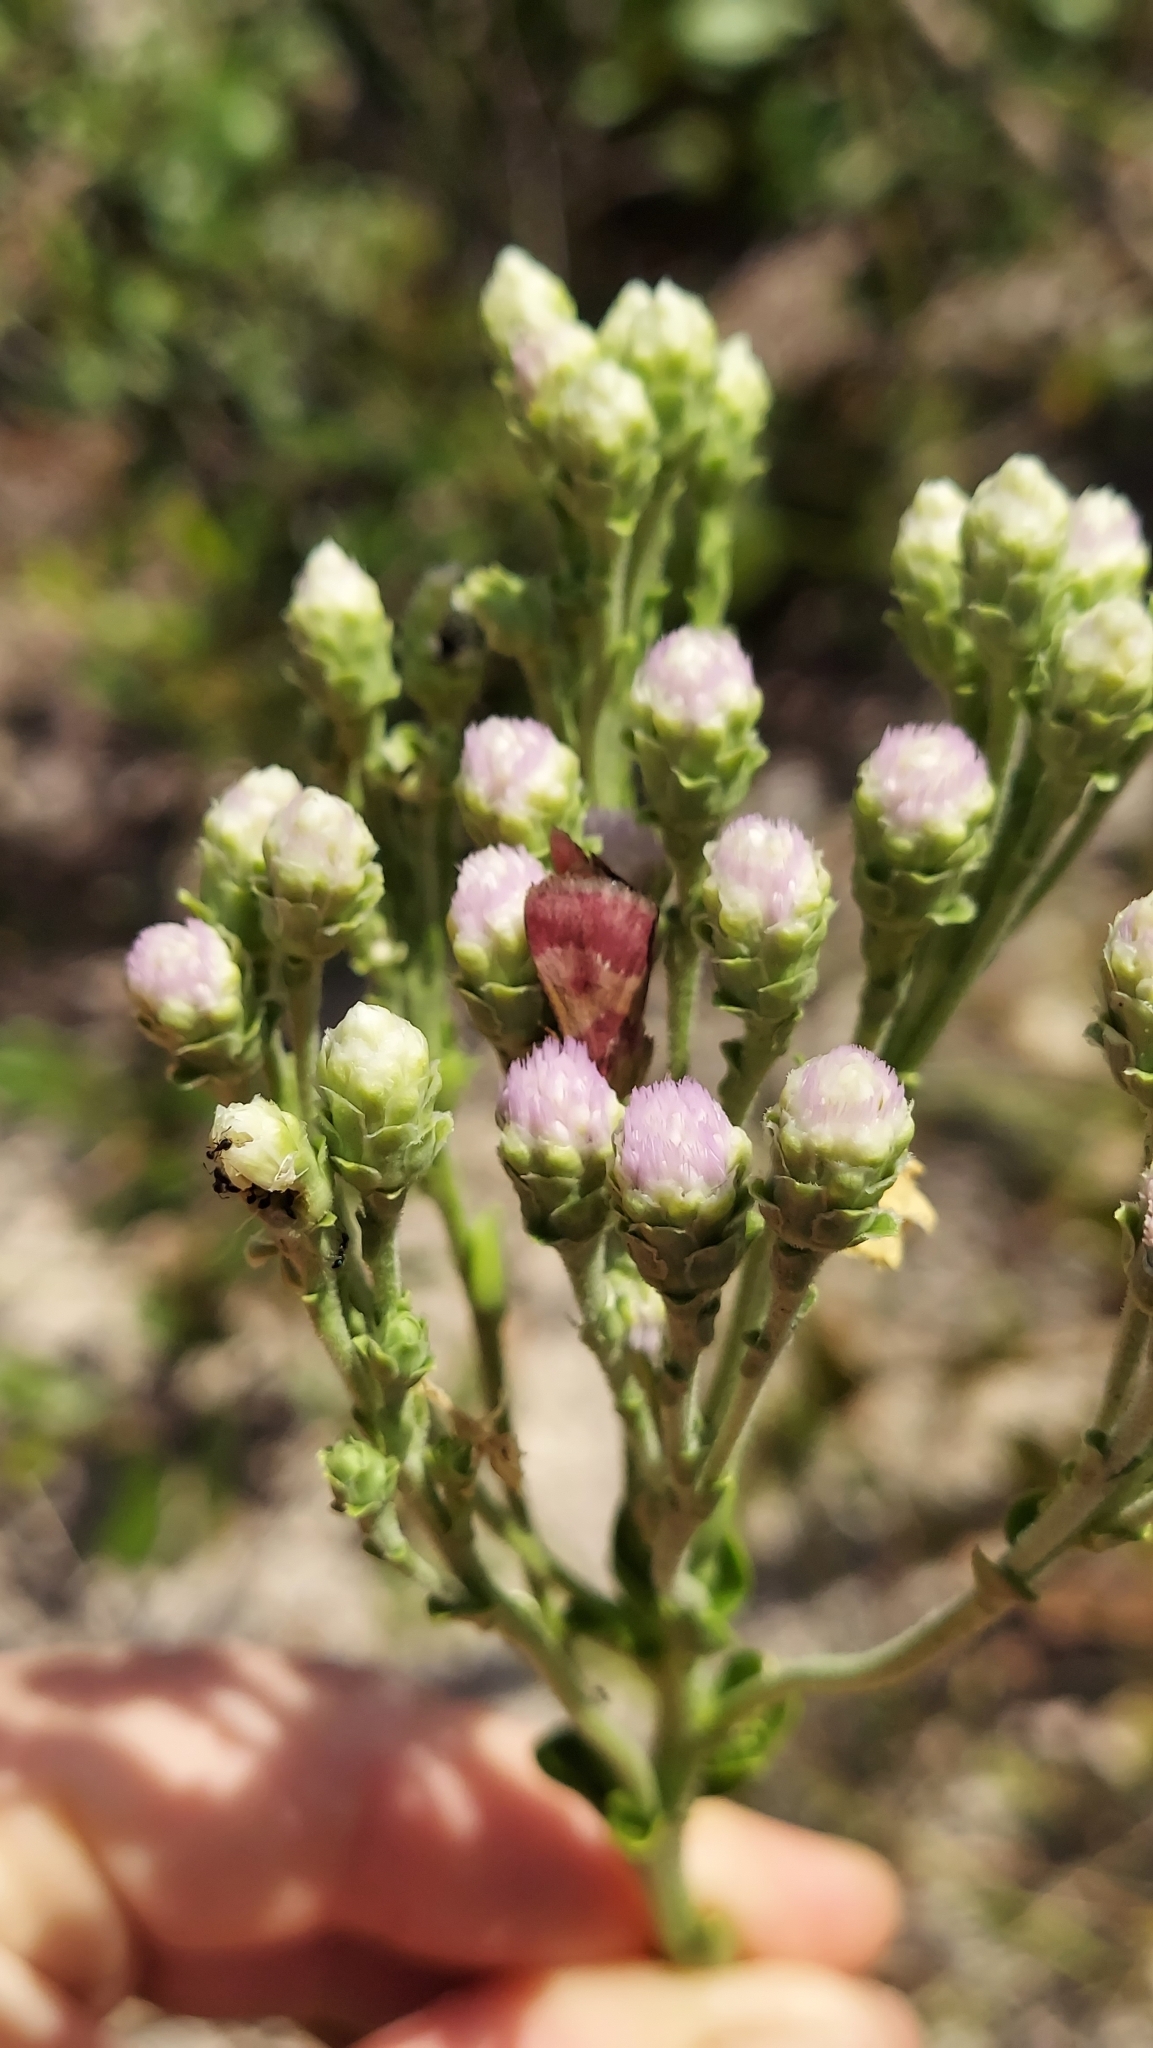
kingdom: Animalia
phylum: Arthropoda
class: Insecta
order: Lepidoptera
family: Noctuidae
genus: Schinia
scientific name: Schinia sanguinea
